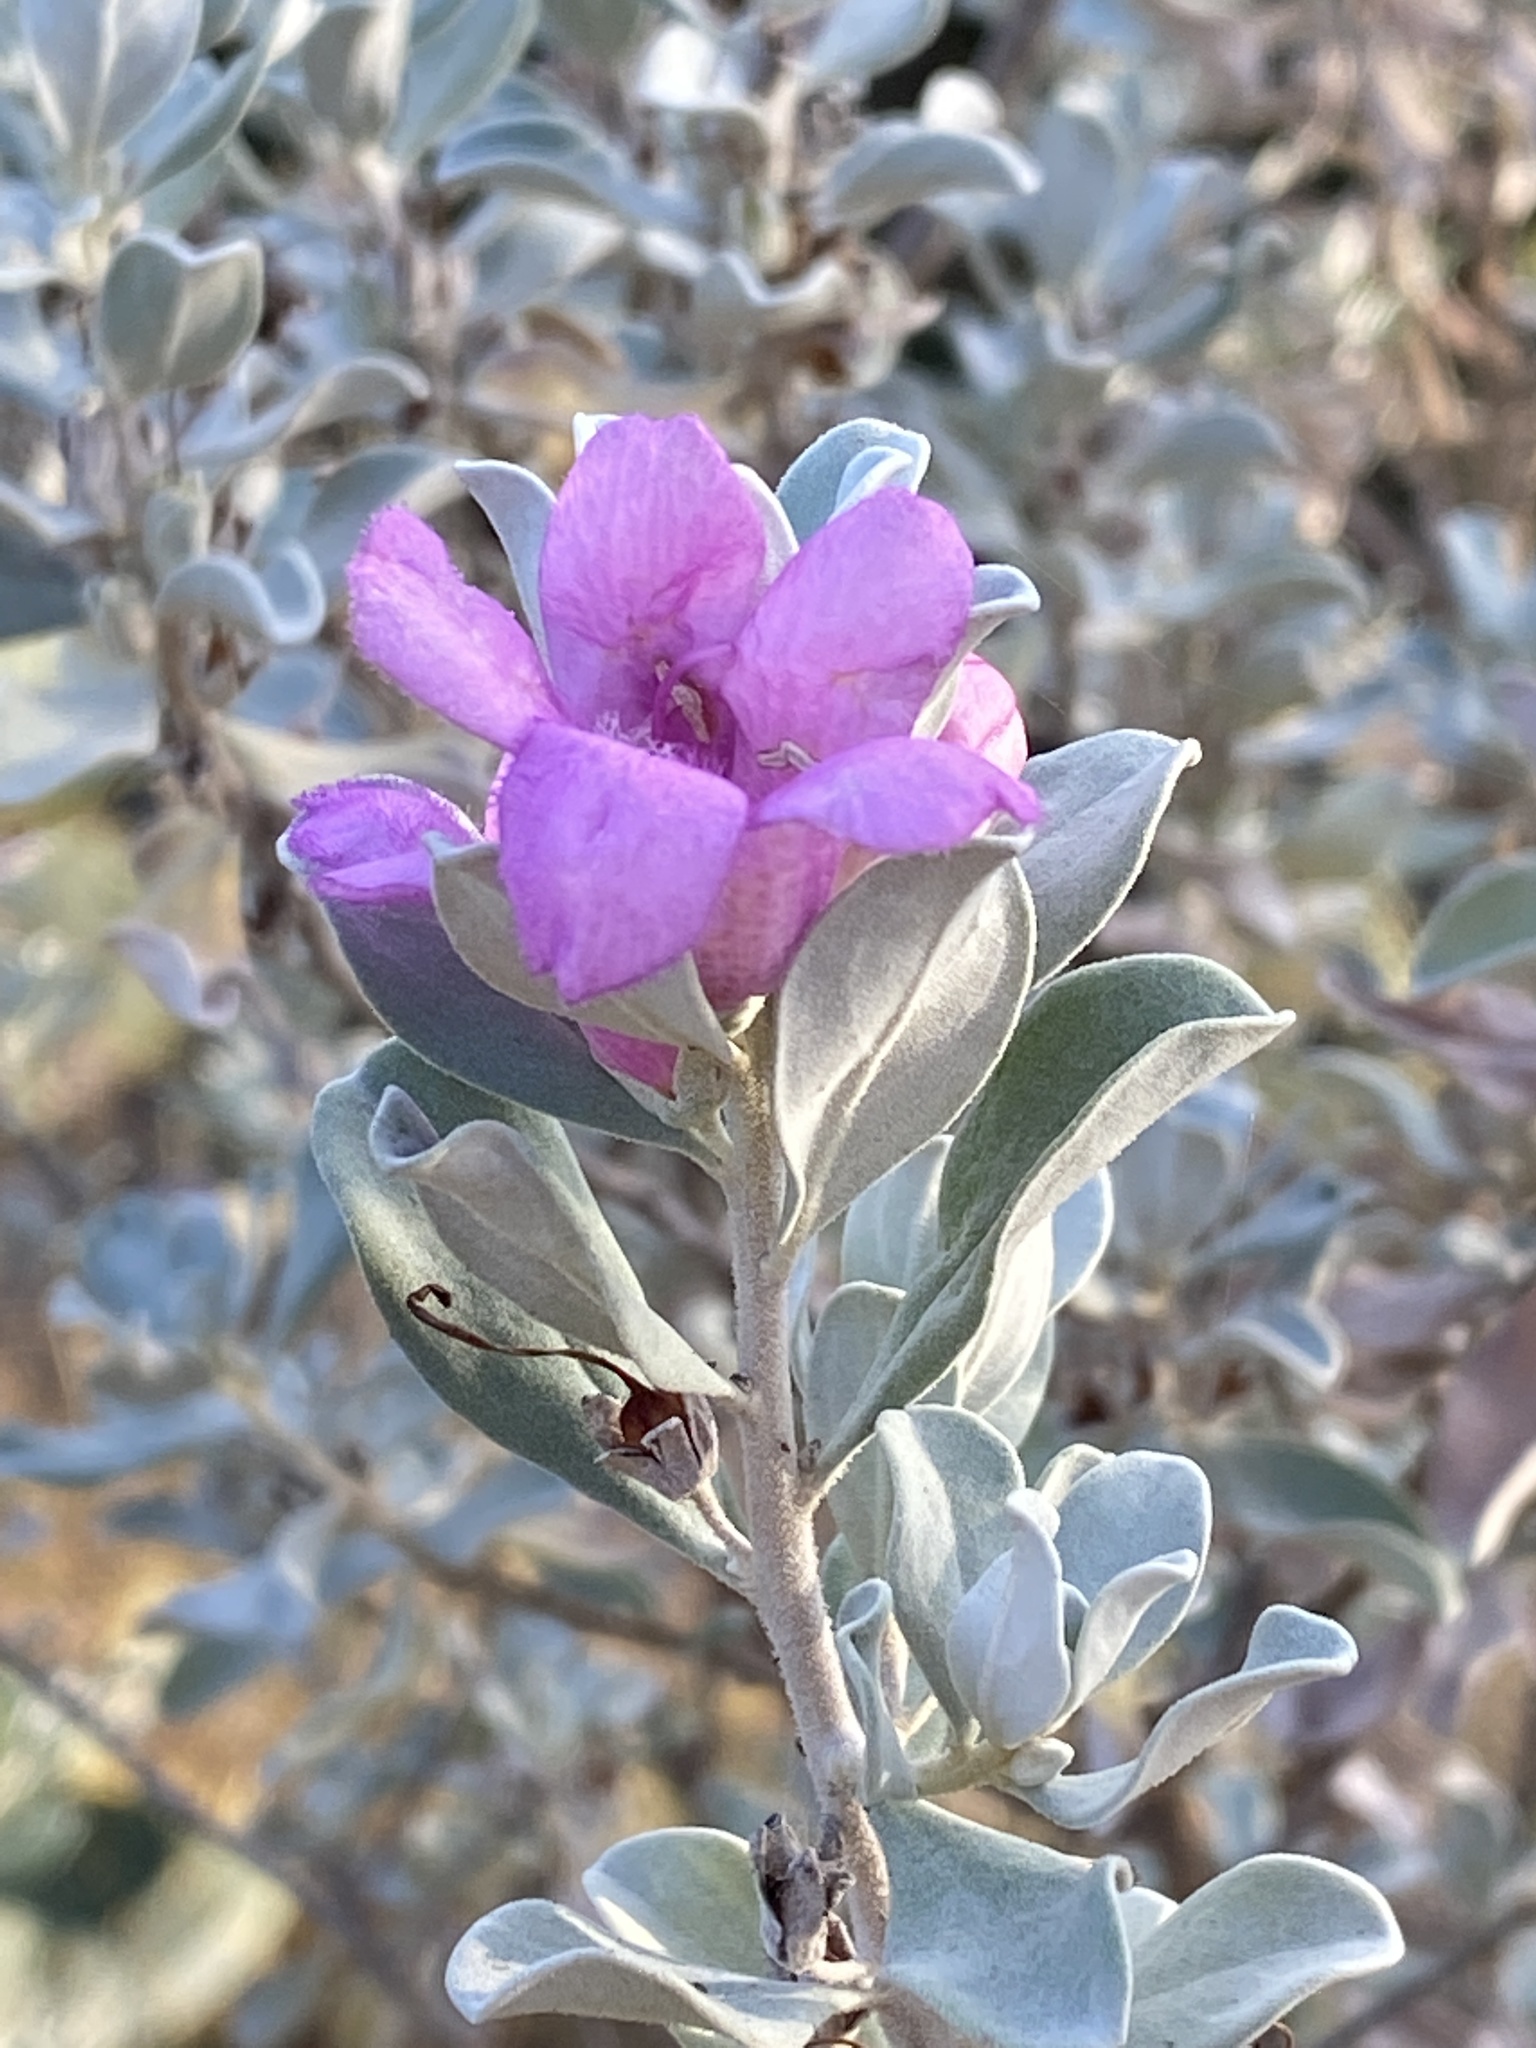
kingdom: Plantae
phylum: Tracheophyta
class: Magnoliopsida
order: Lamiales
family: Scrophulariaceae
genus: Leucophyllum
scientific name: Leucophyllum frutescens
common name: Texas silverleaf
